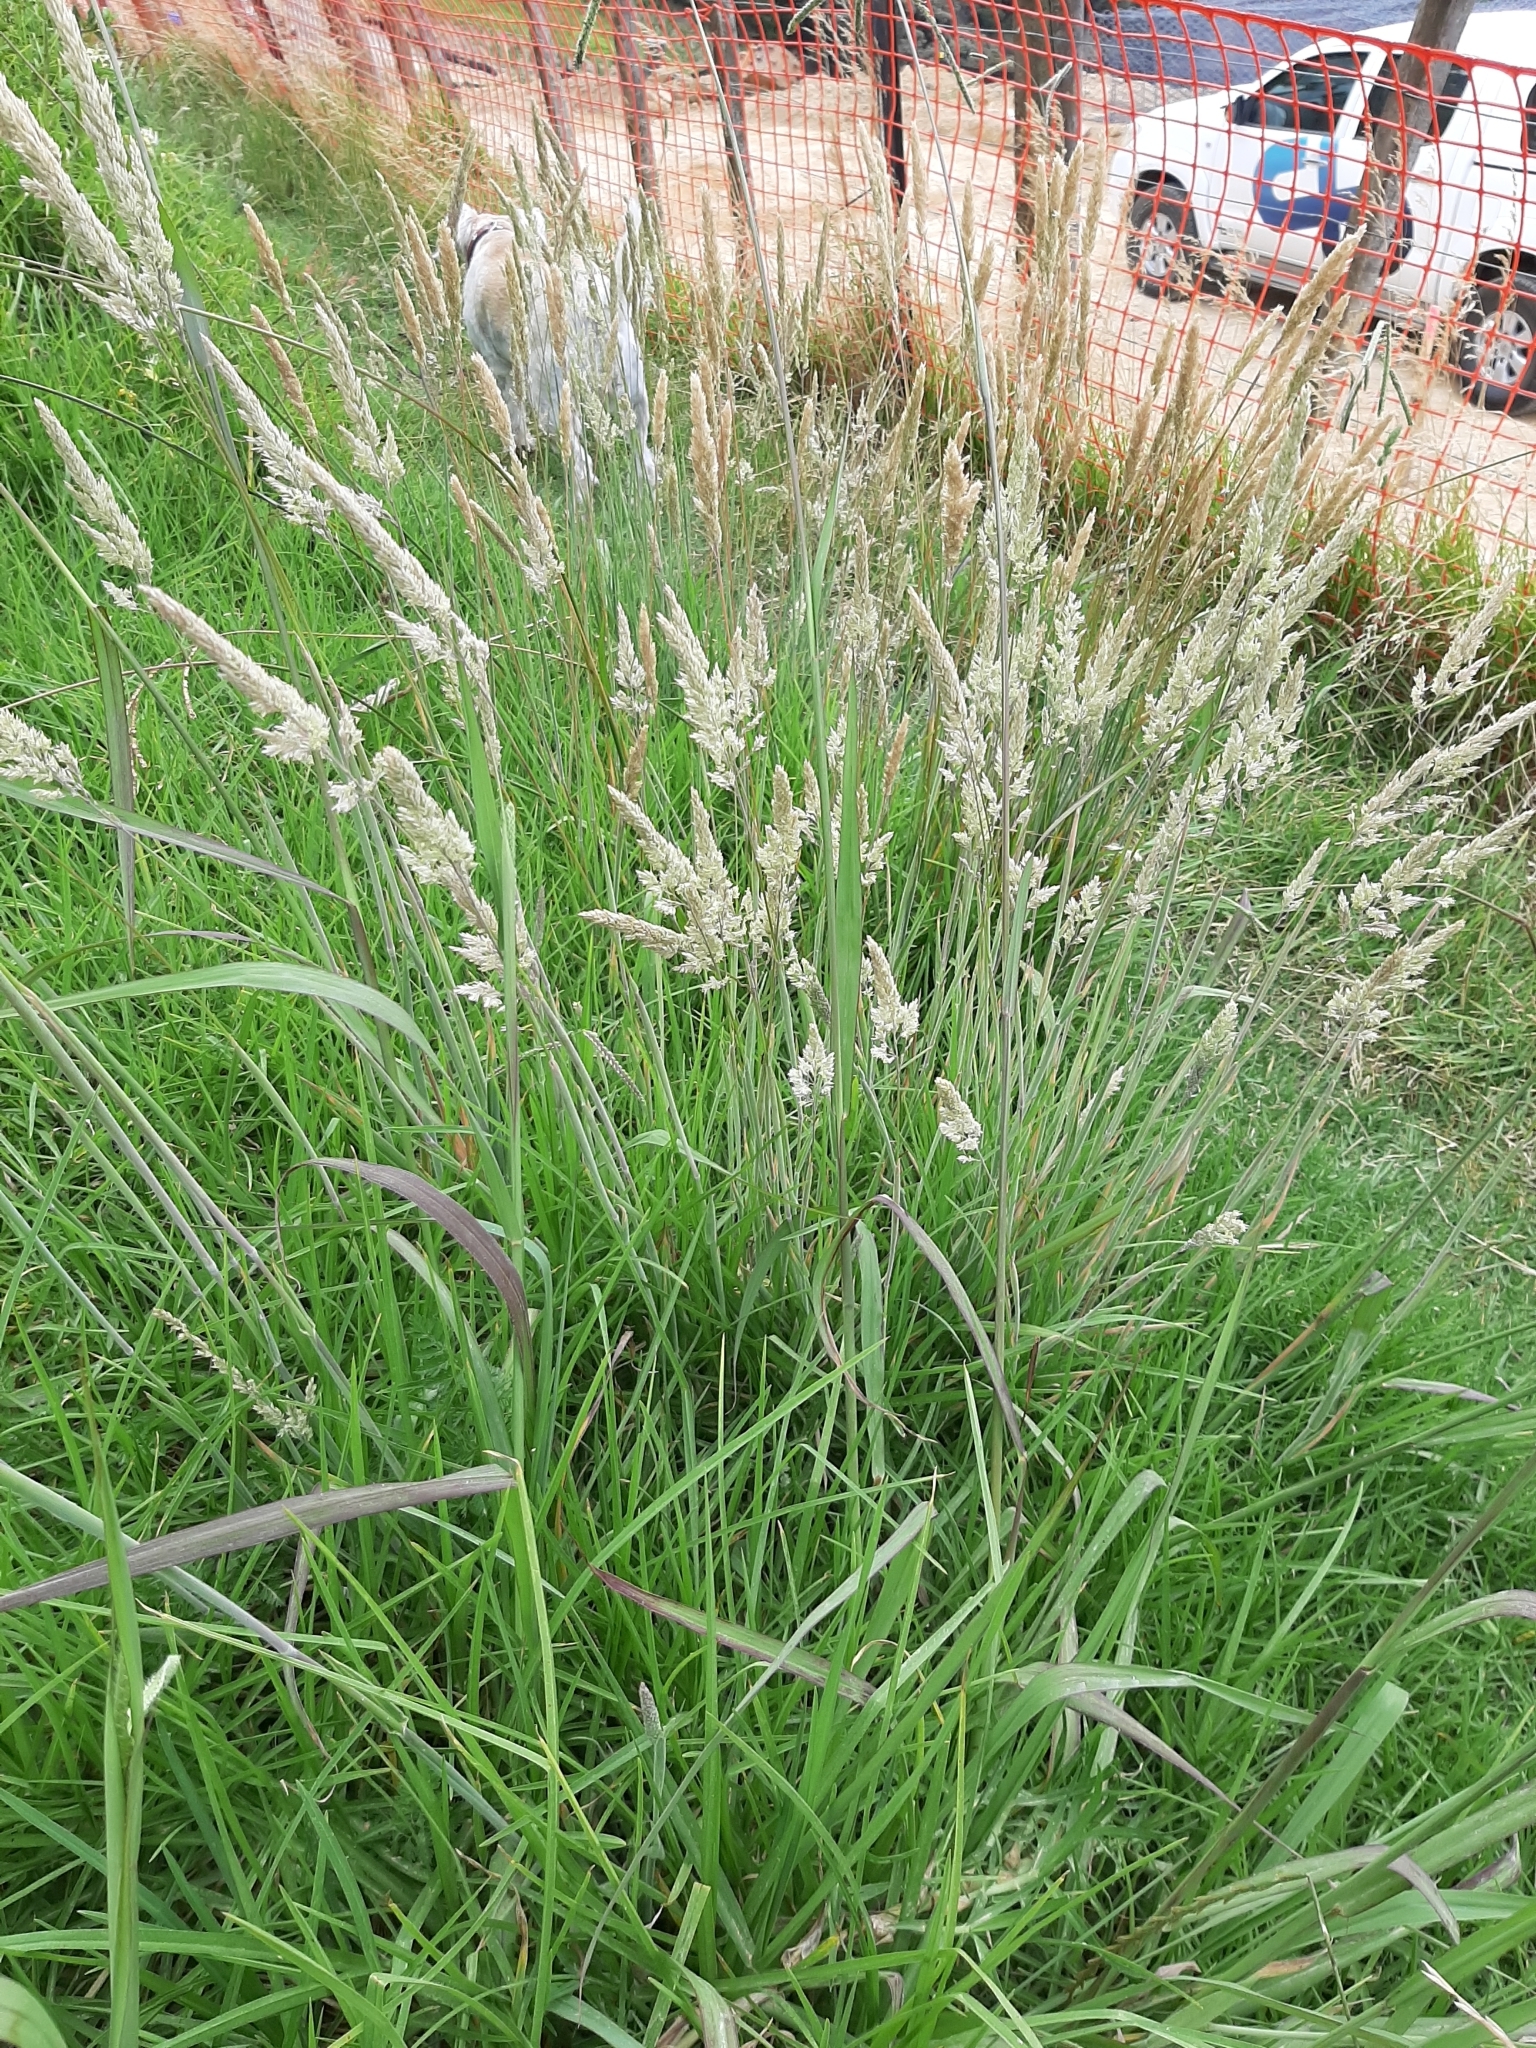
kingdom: Plantae
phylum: Tracheophyta
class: Liliopsida
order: Poales
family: Poaceae
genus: Holcus
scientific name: Holcus lanatus
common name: Yorkshire-fog
